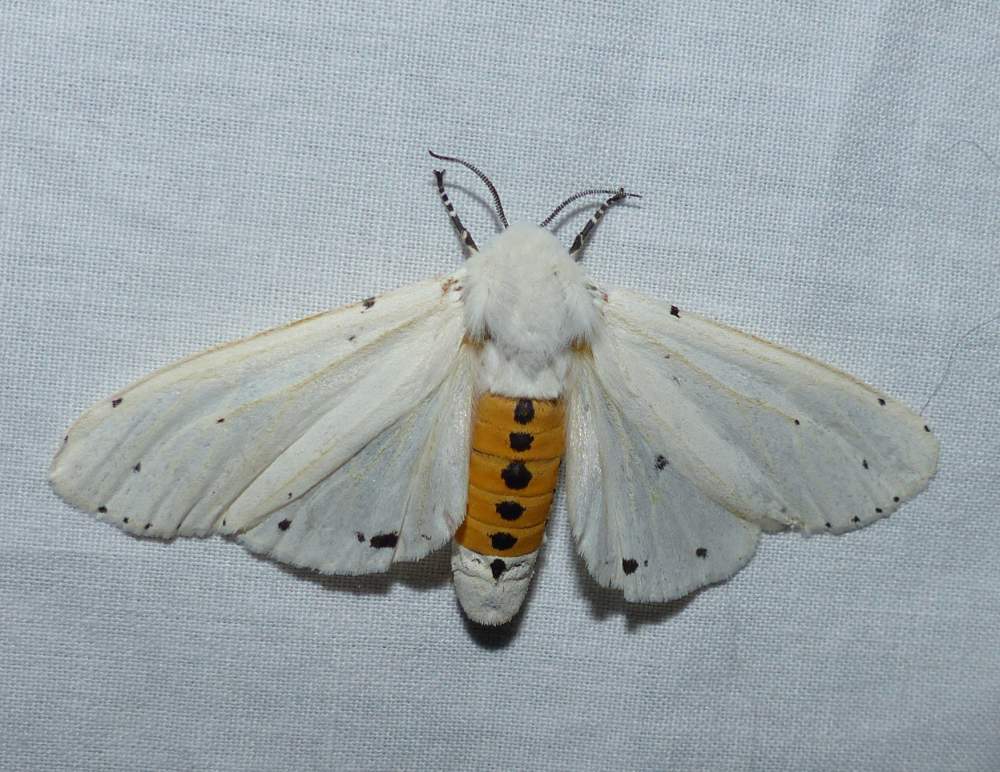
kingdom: Animalia
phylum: Arthropoda
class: Insecta
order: Lepidoptera
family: Erebidae
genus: Estigmene
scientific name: Estigmene acrea
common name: Salt marsh moth
